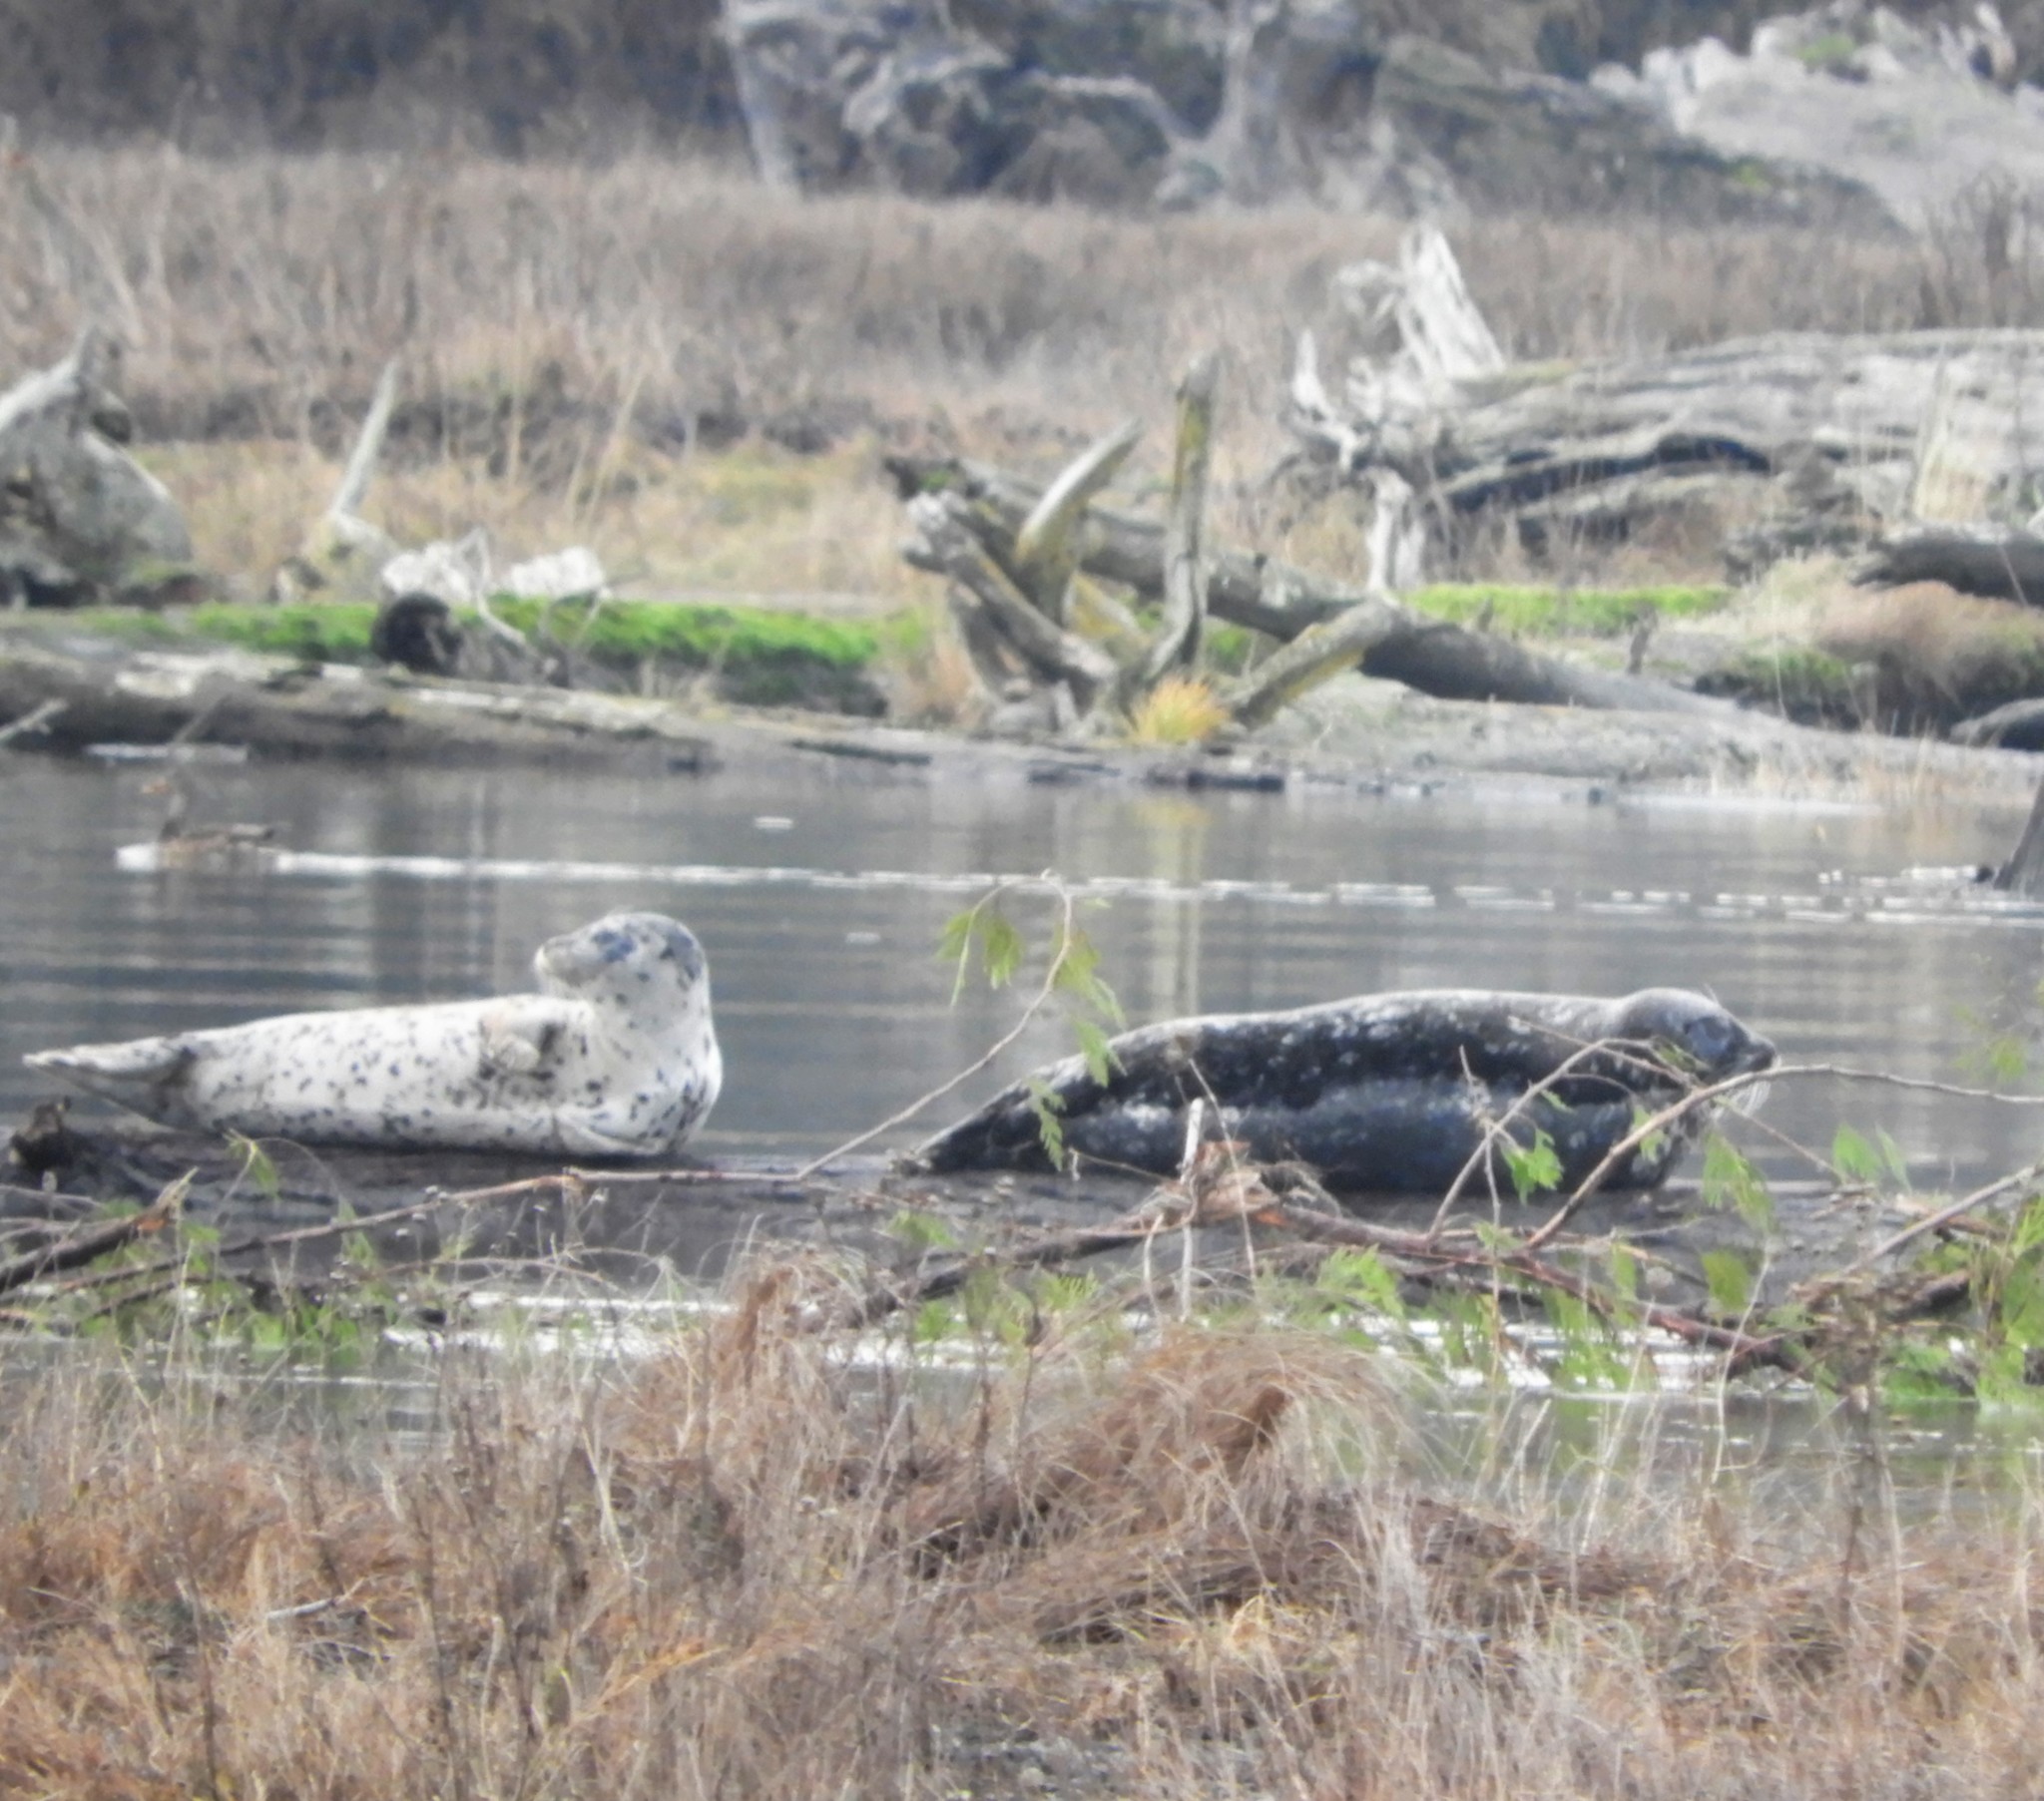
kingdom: Animalia
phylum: Chordata
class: Mammalia
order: Carnivora
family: Phocidae
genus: Phoca
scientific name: Phoca vitulina
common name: Harbor seal
